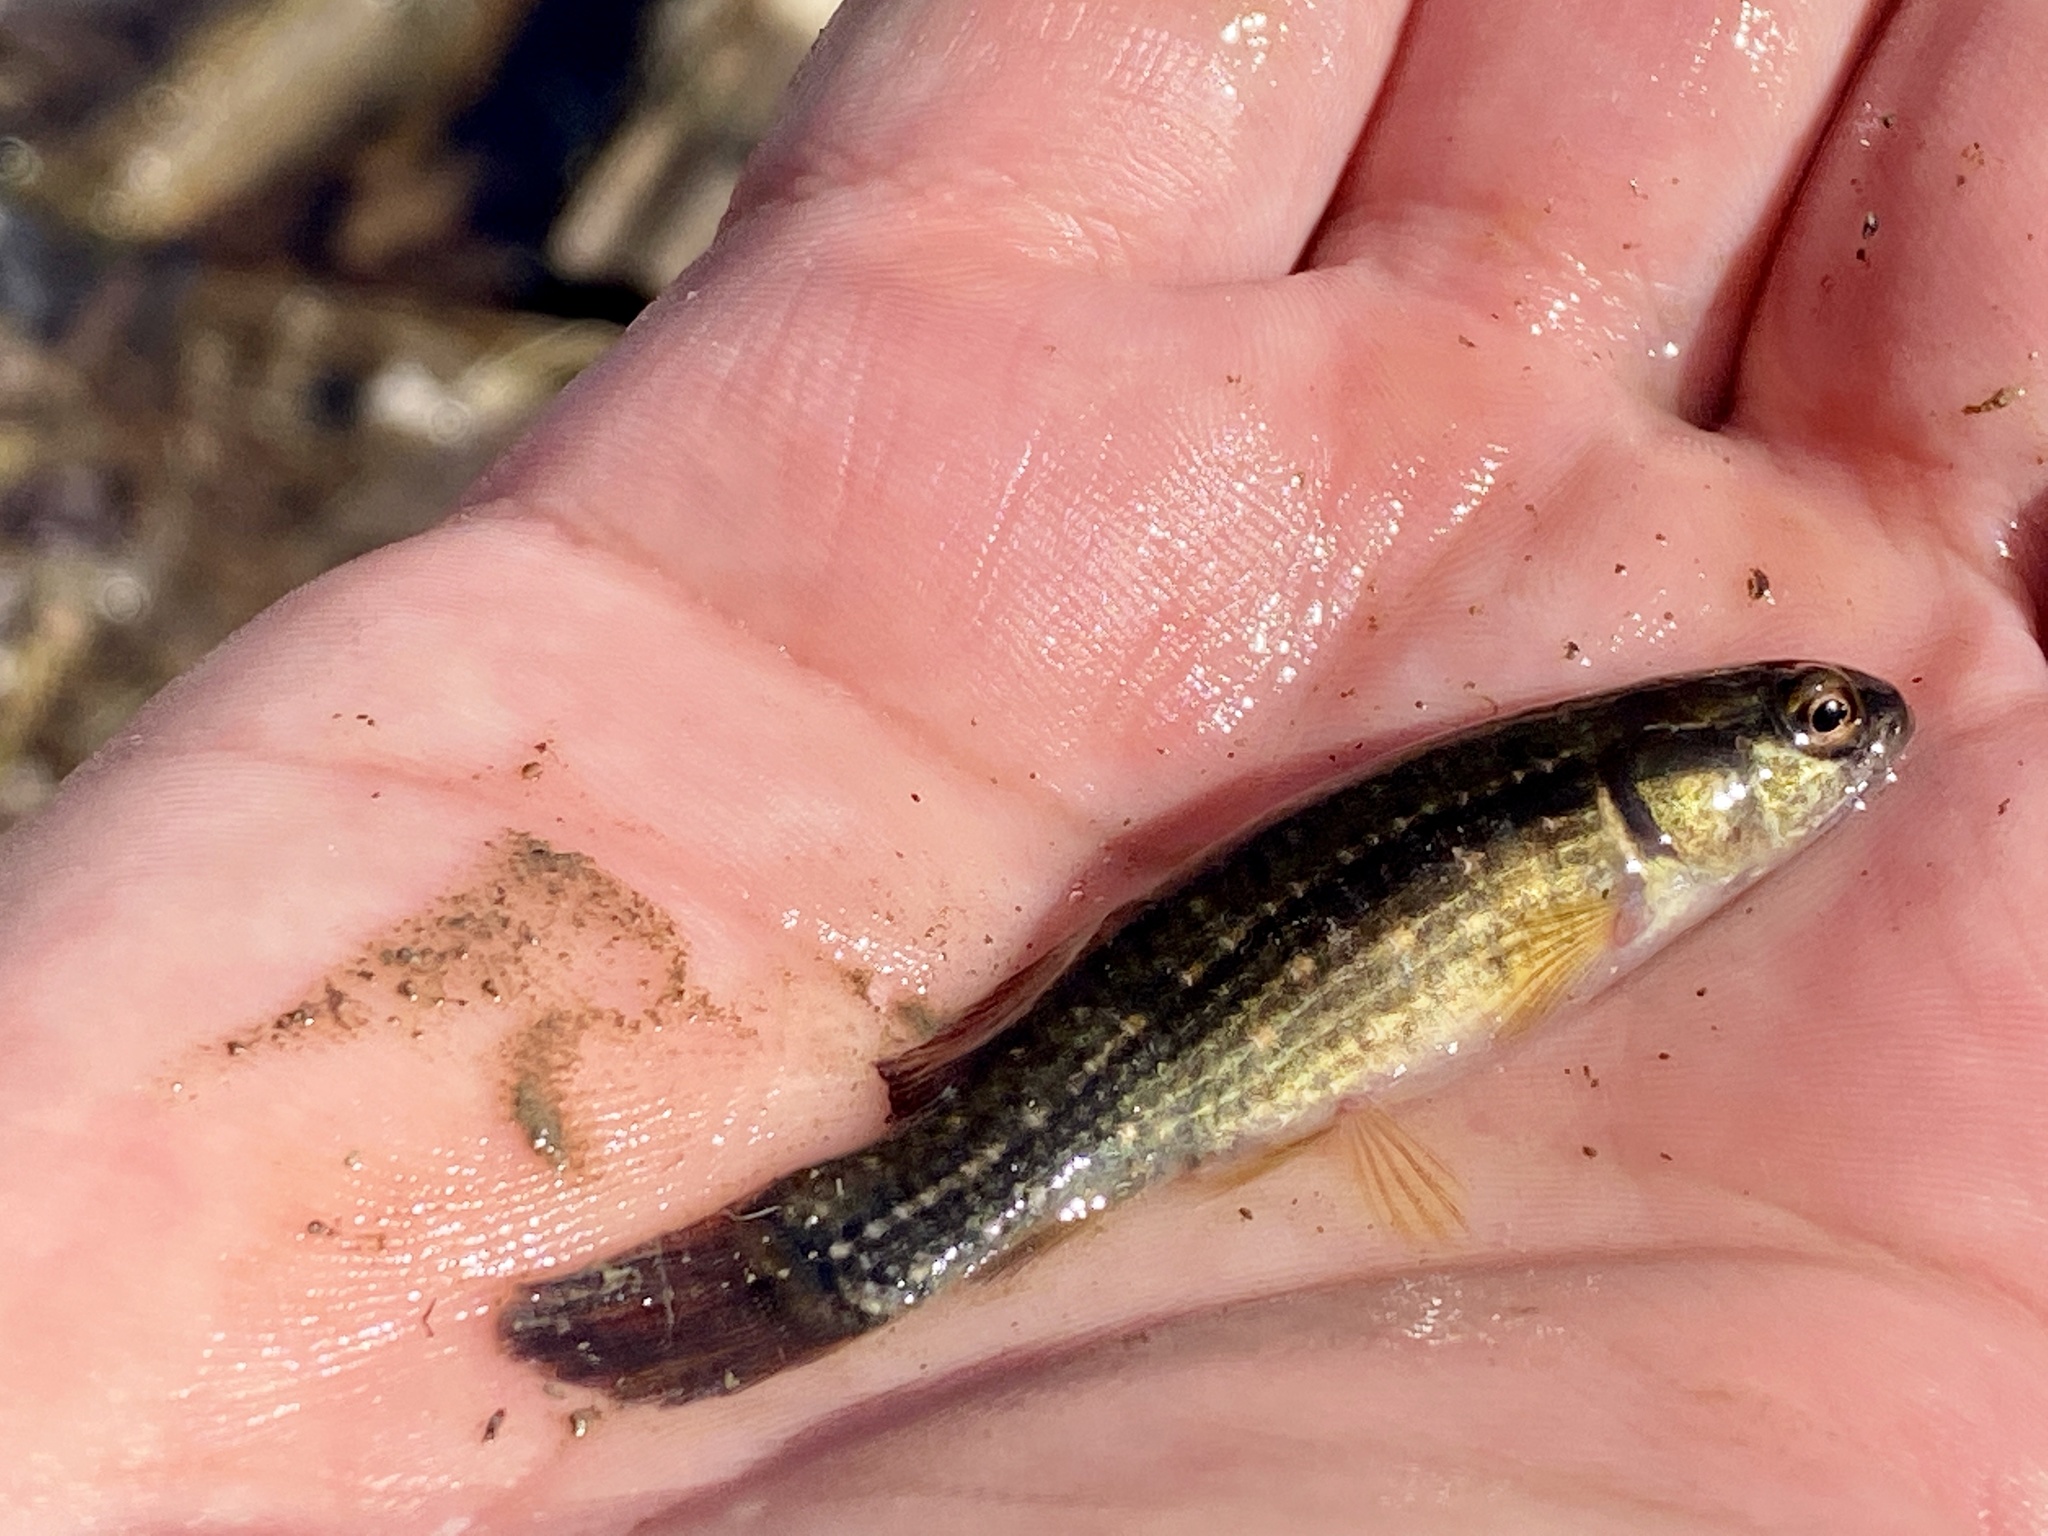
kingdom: Animalia
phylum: Chordata
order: Esociformes
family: Umbridae
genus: Umbra
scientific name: Umbra pygmaea
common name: Eastern mudminnow
